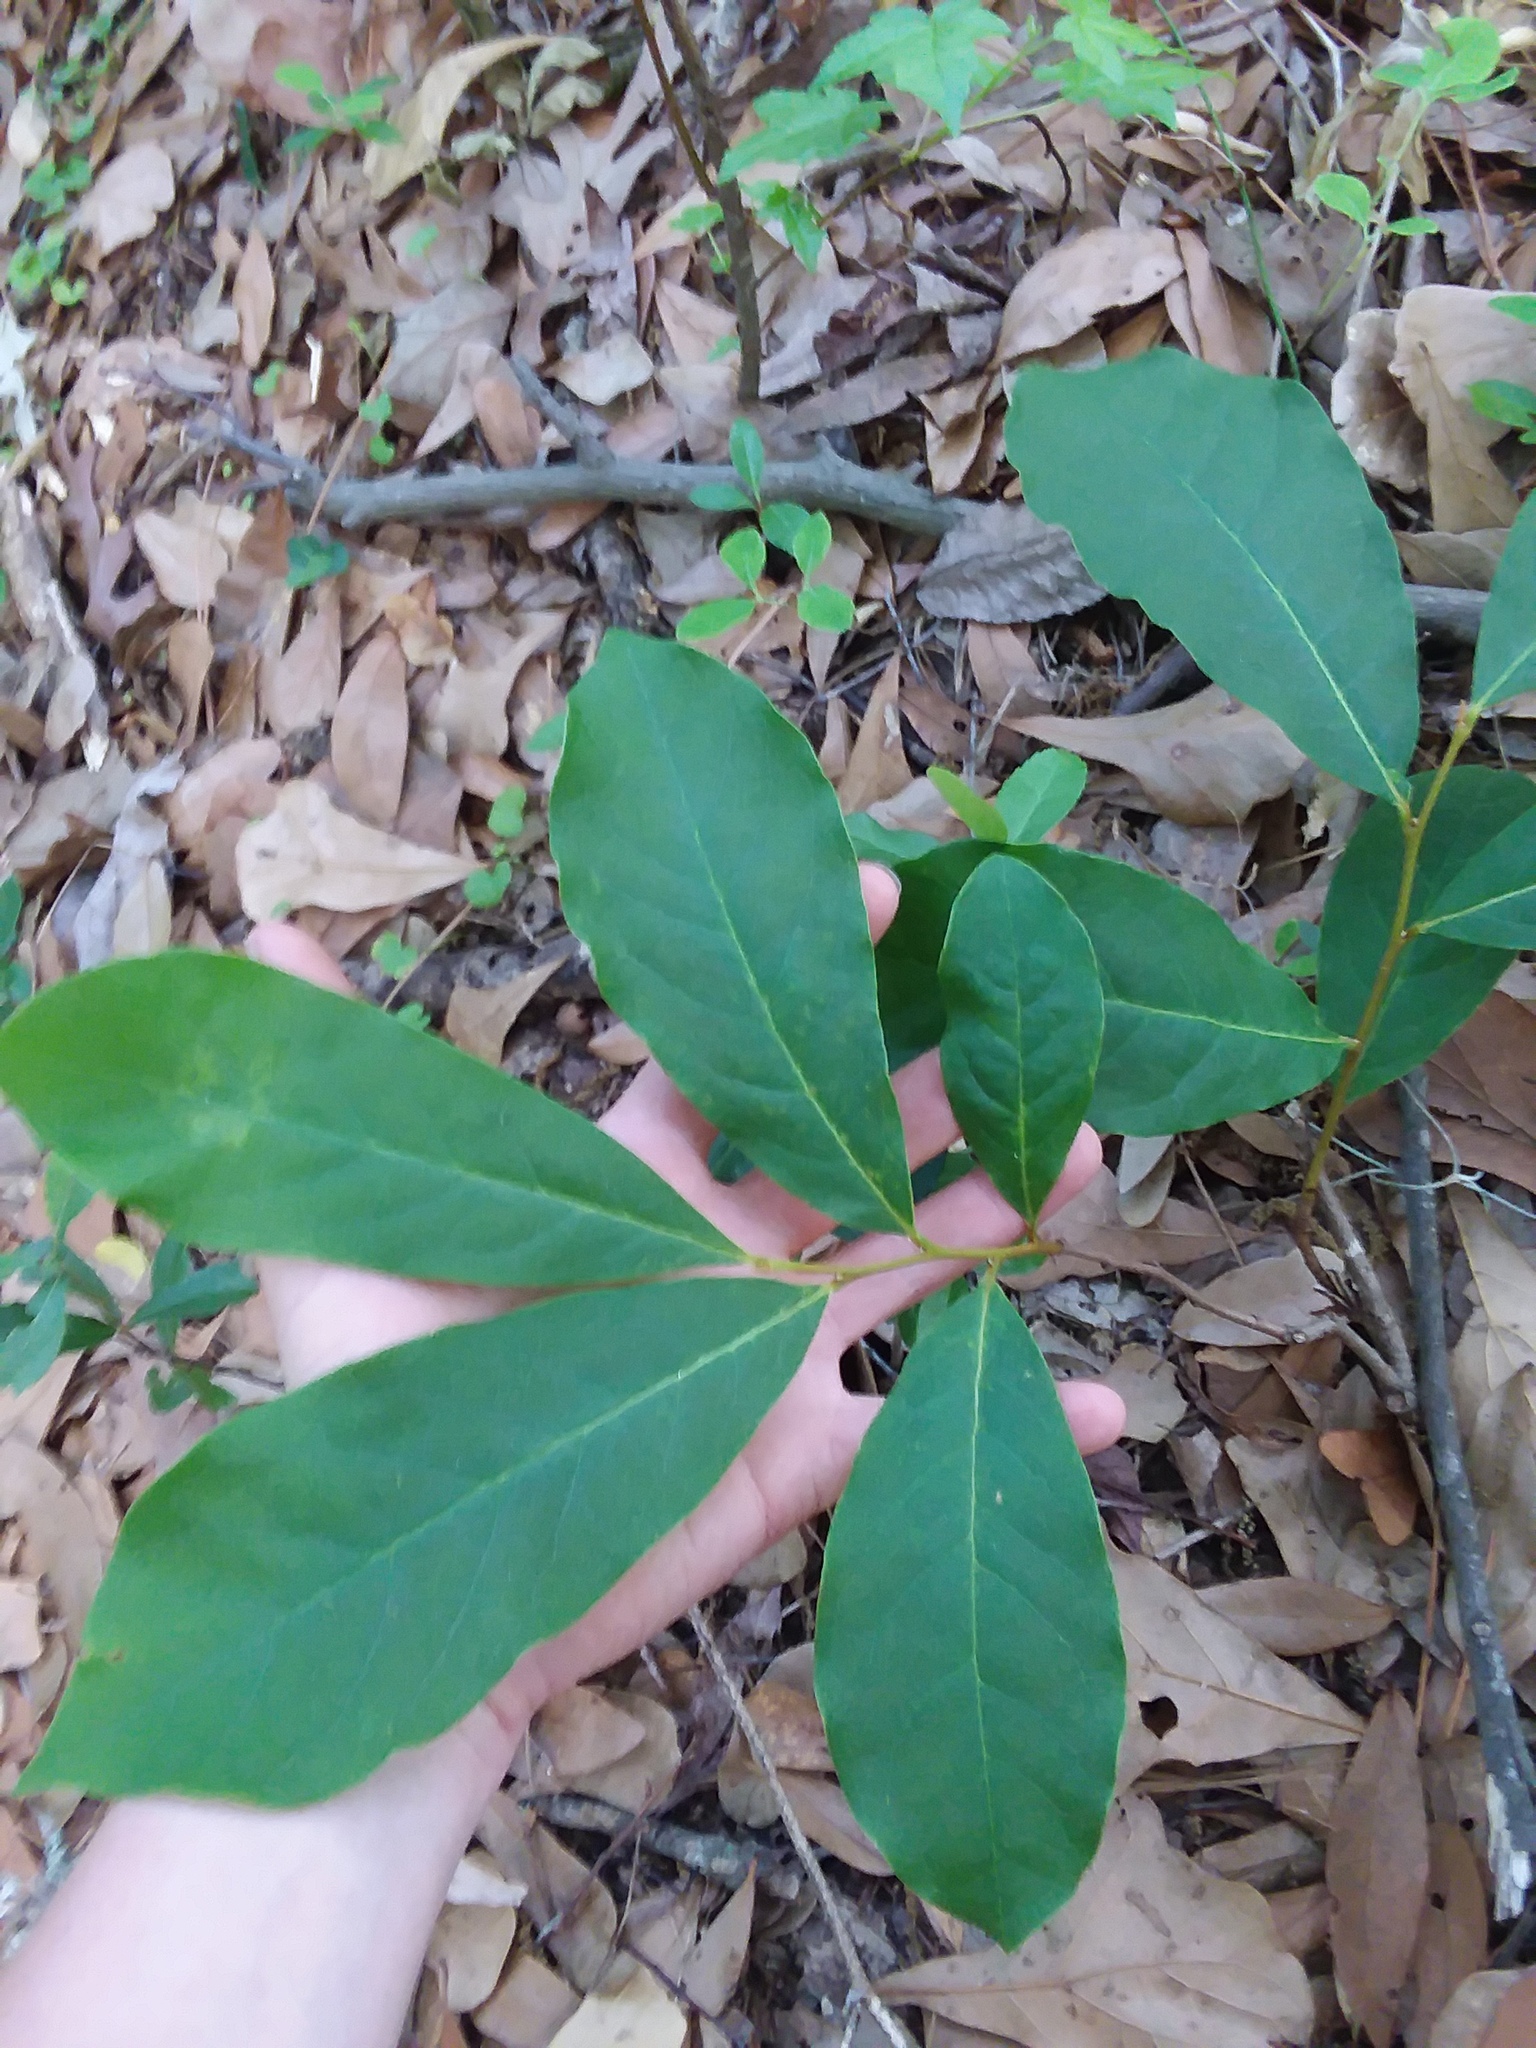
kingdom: Plantae
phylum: Tracheophyta
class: Magnoliopsida
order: Magnoliales
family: Annonaceae
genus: Asimina
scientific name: Asimina parviflora
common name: Dwarf pawpaw
